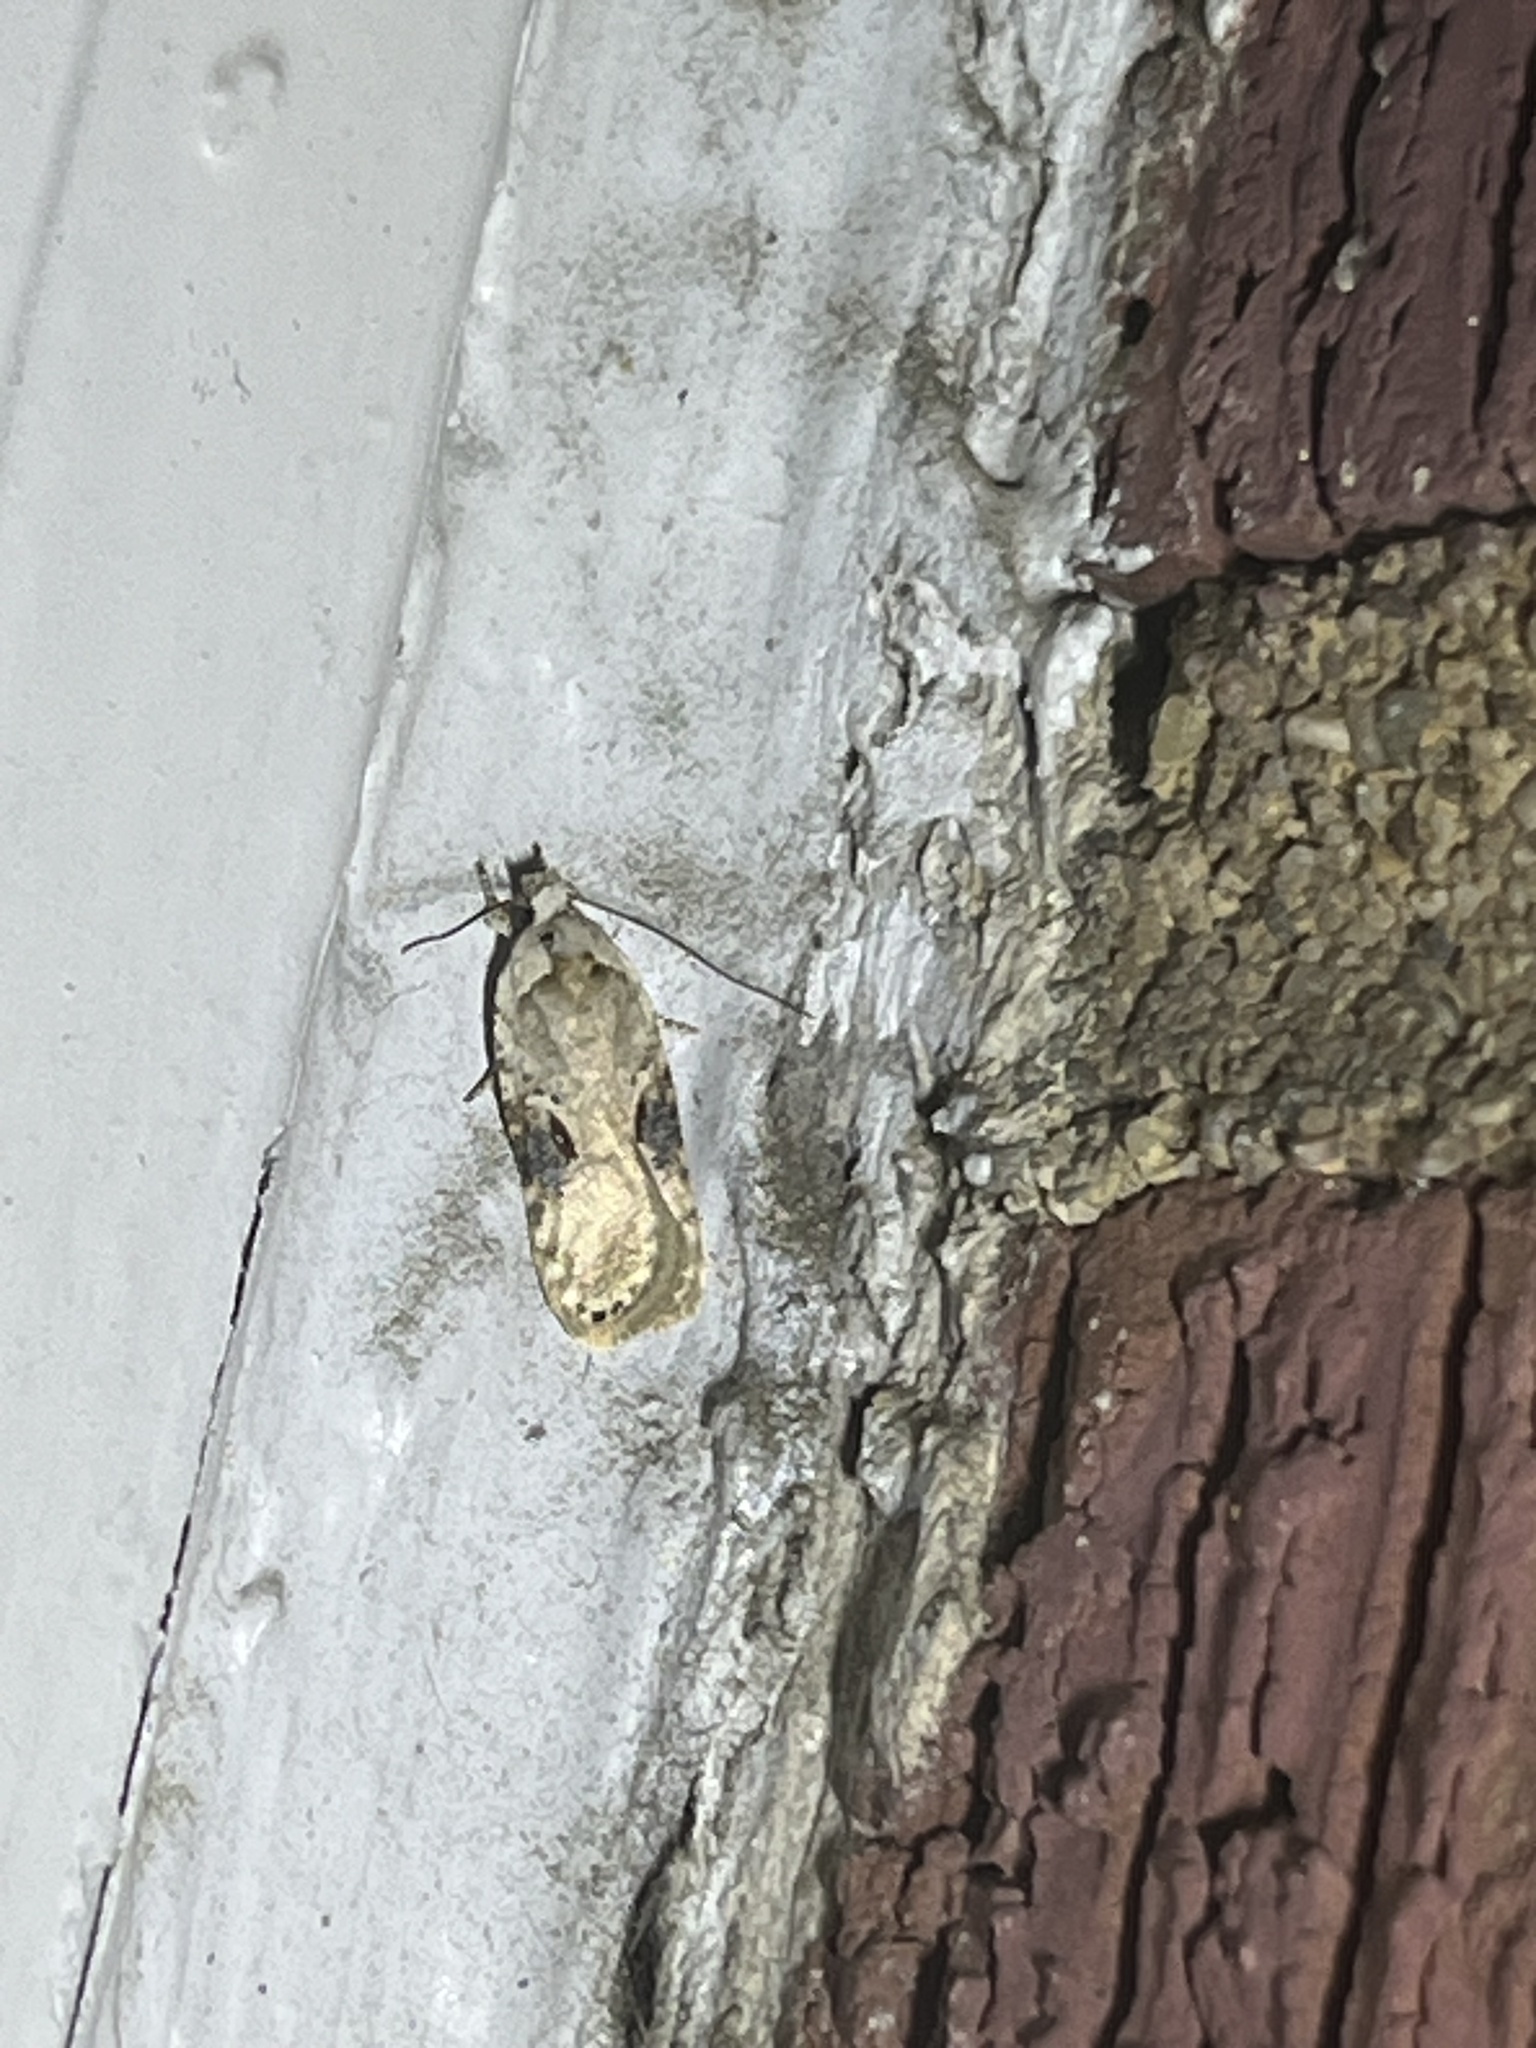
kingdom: Animalia
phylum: Arthropoda
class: Insecta
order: Lepidoptera
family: Depressariidae
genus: Agonopterix
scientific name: Agonopterix alstroemeriana
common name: Moth
